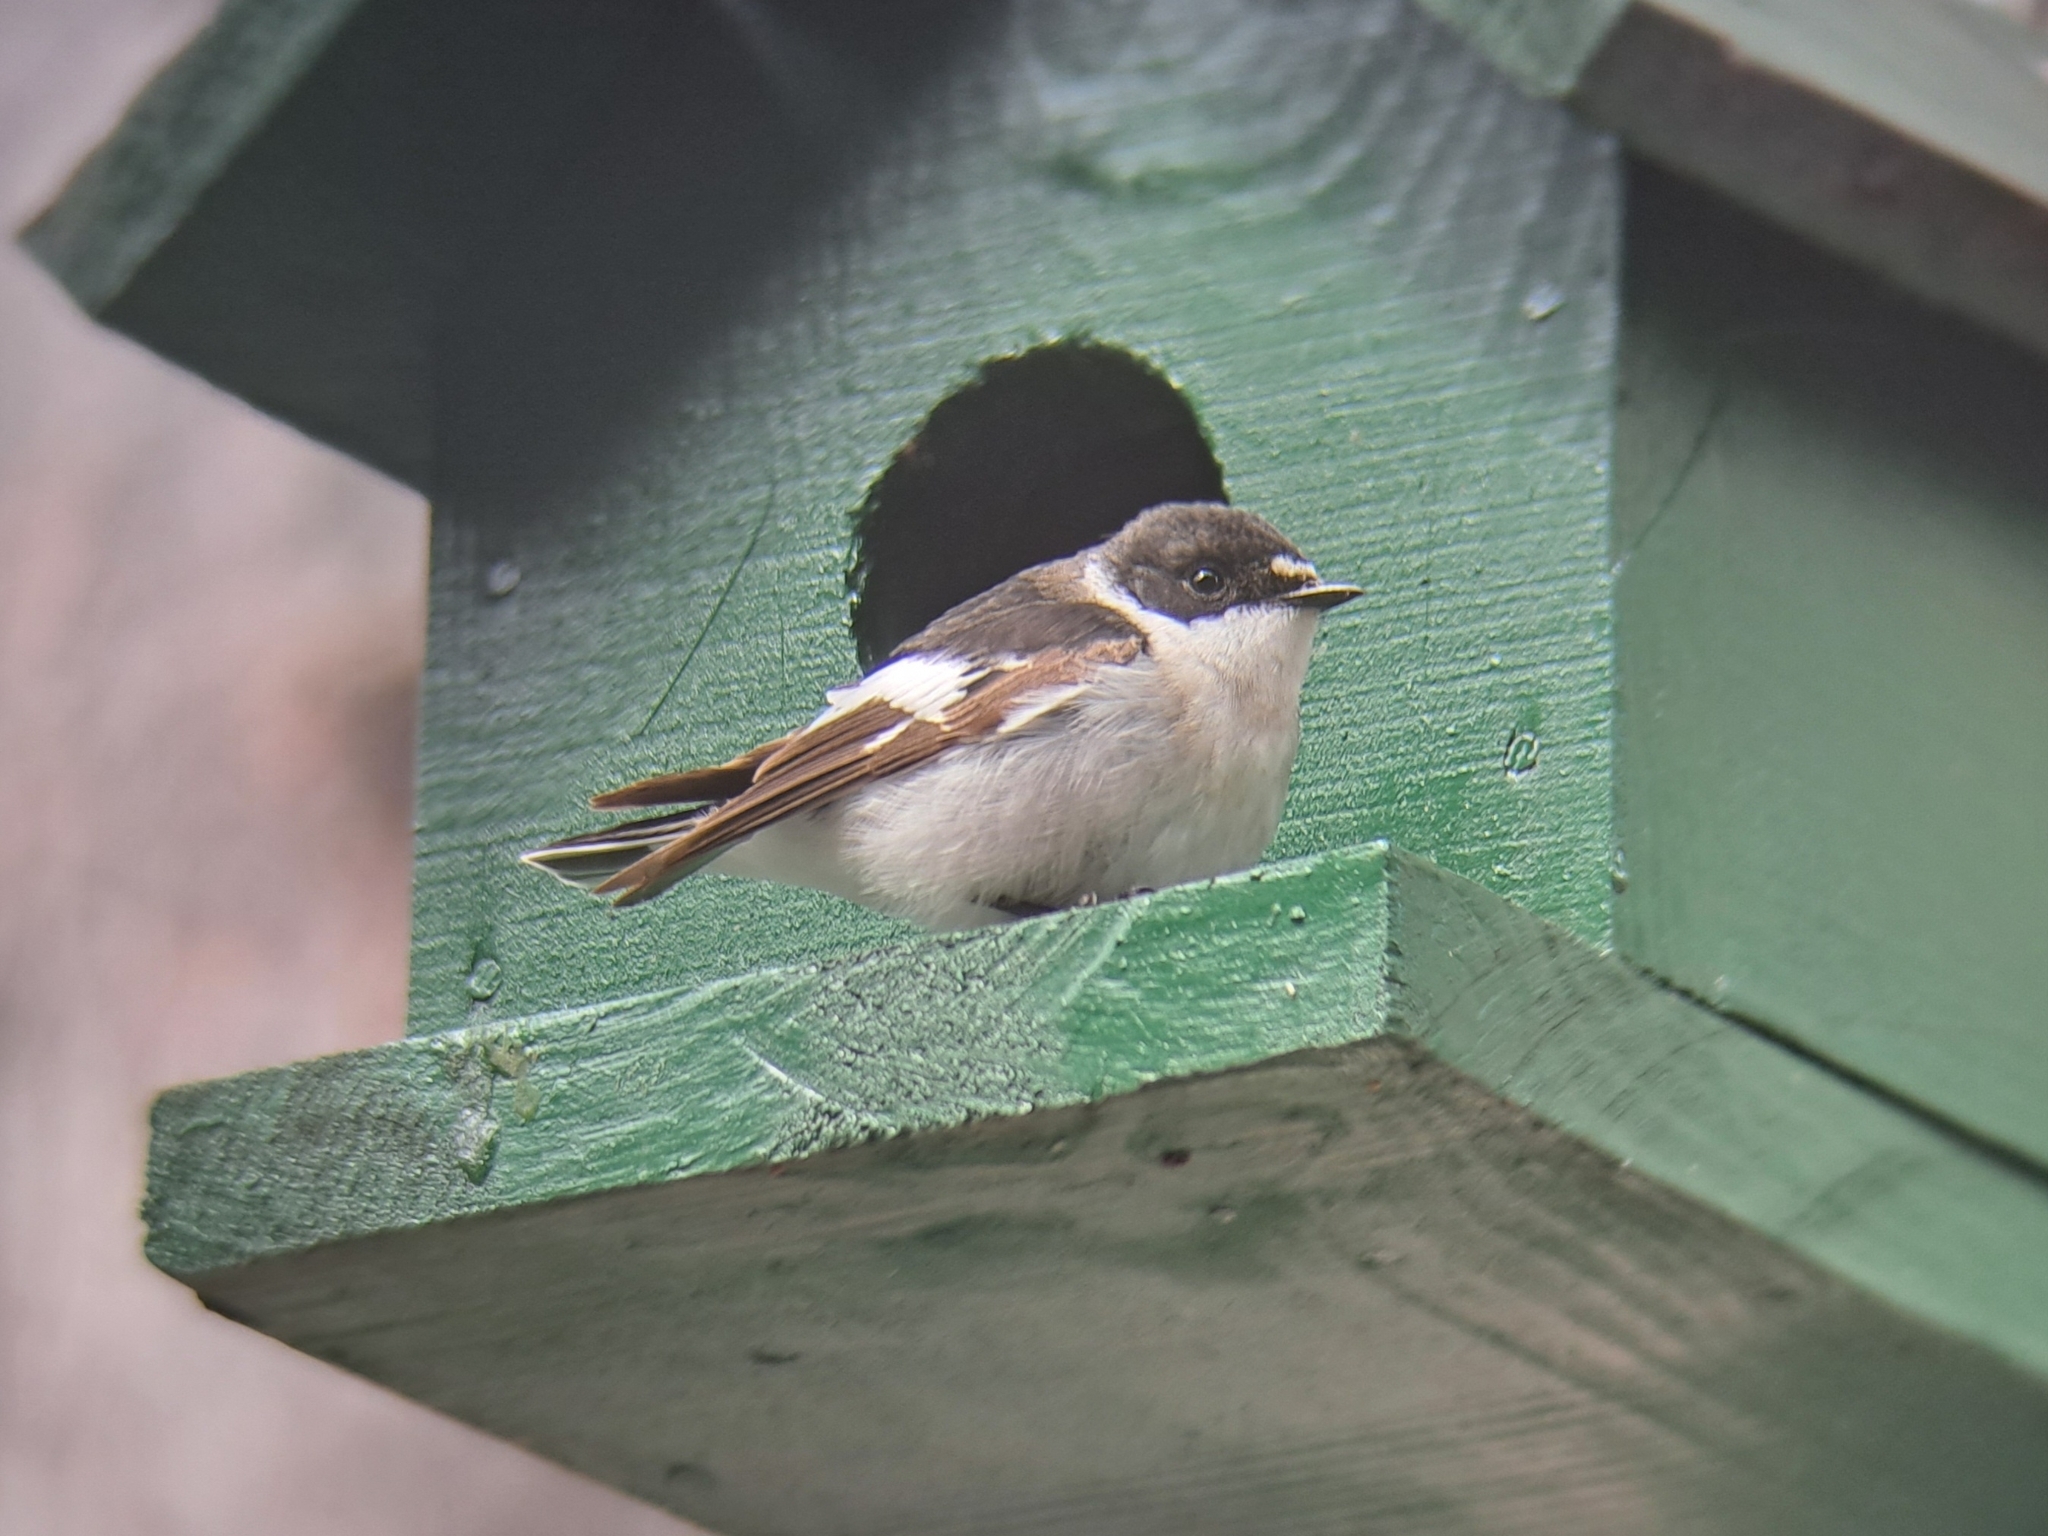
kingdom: Animalia
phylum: Chordata
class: Aves
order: Passeriformes
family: Muscicapidae
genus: Ficedula
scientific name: Ficedula semitorquata
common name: Semicollared flycatcher
